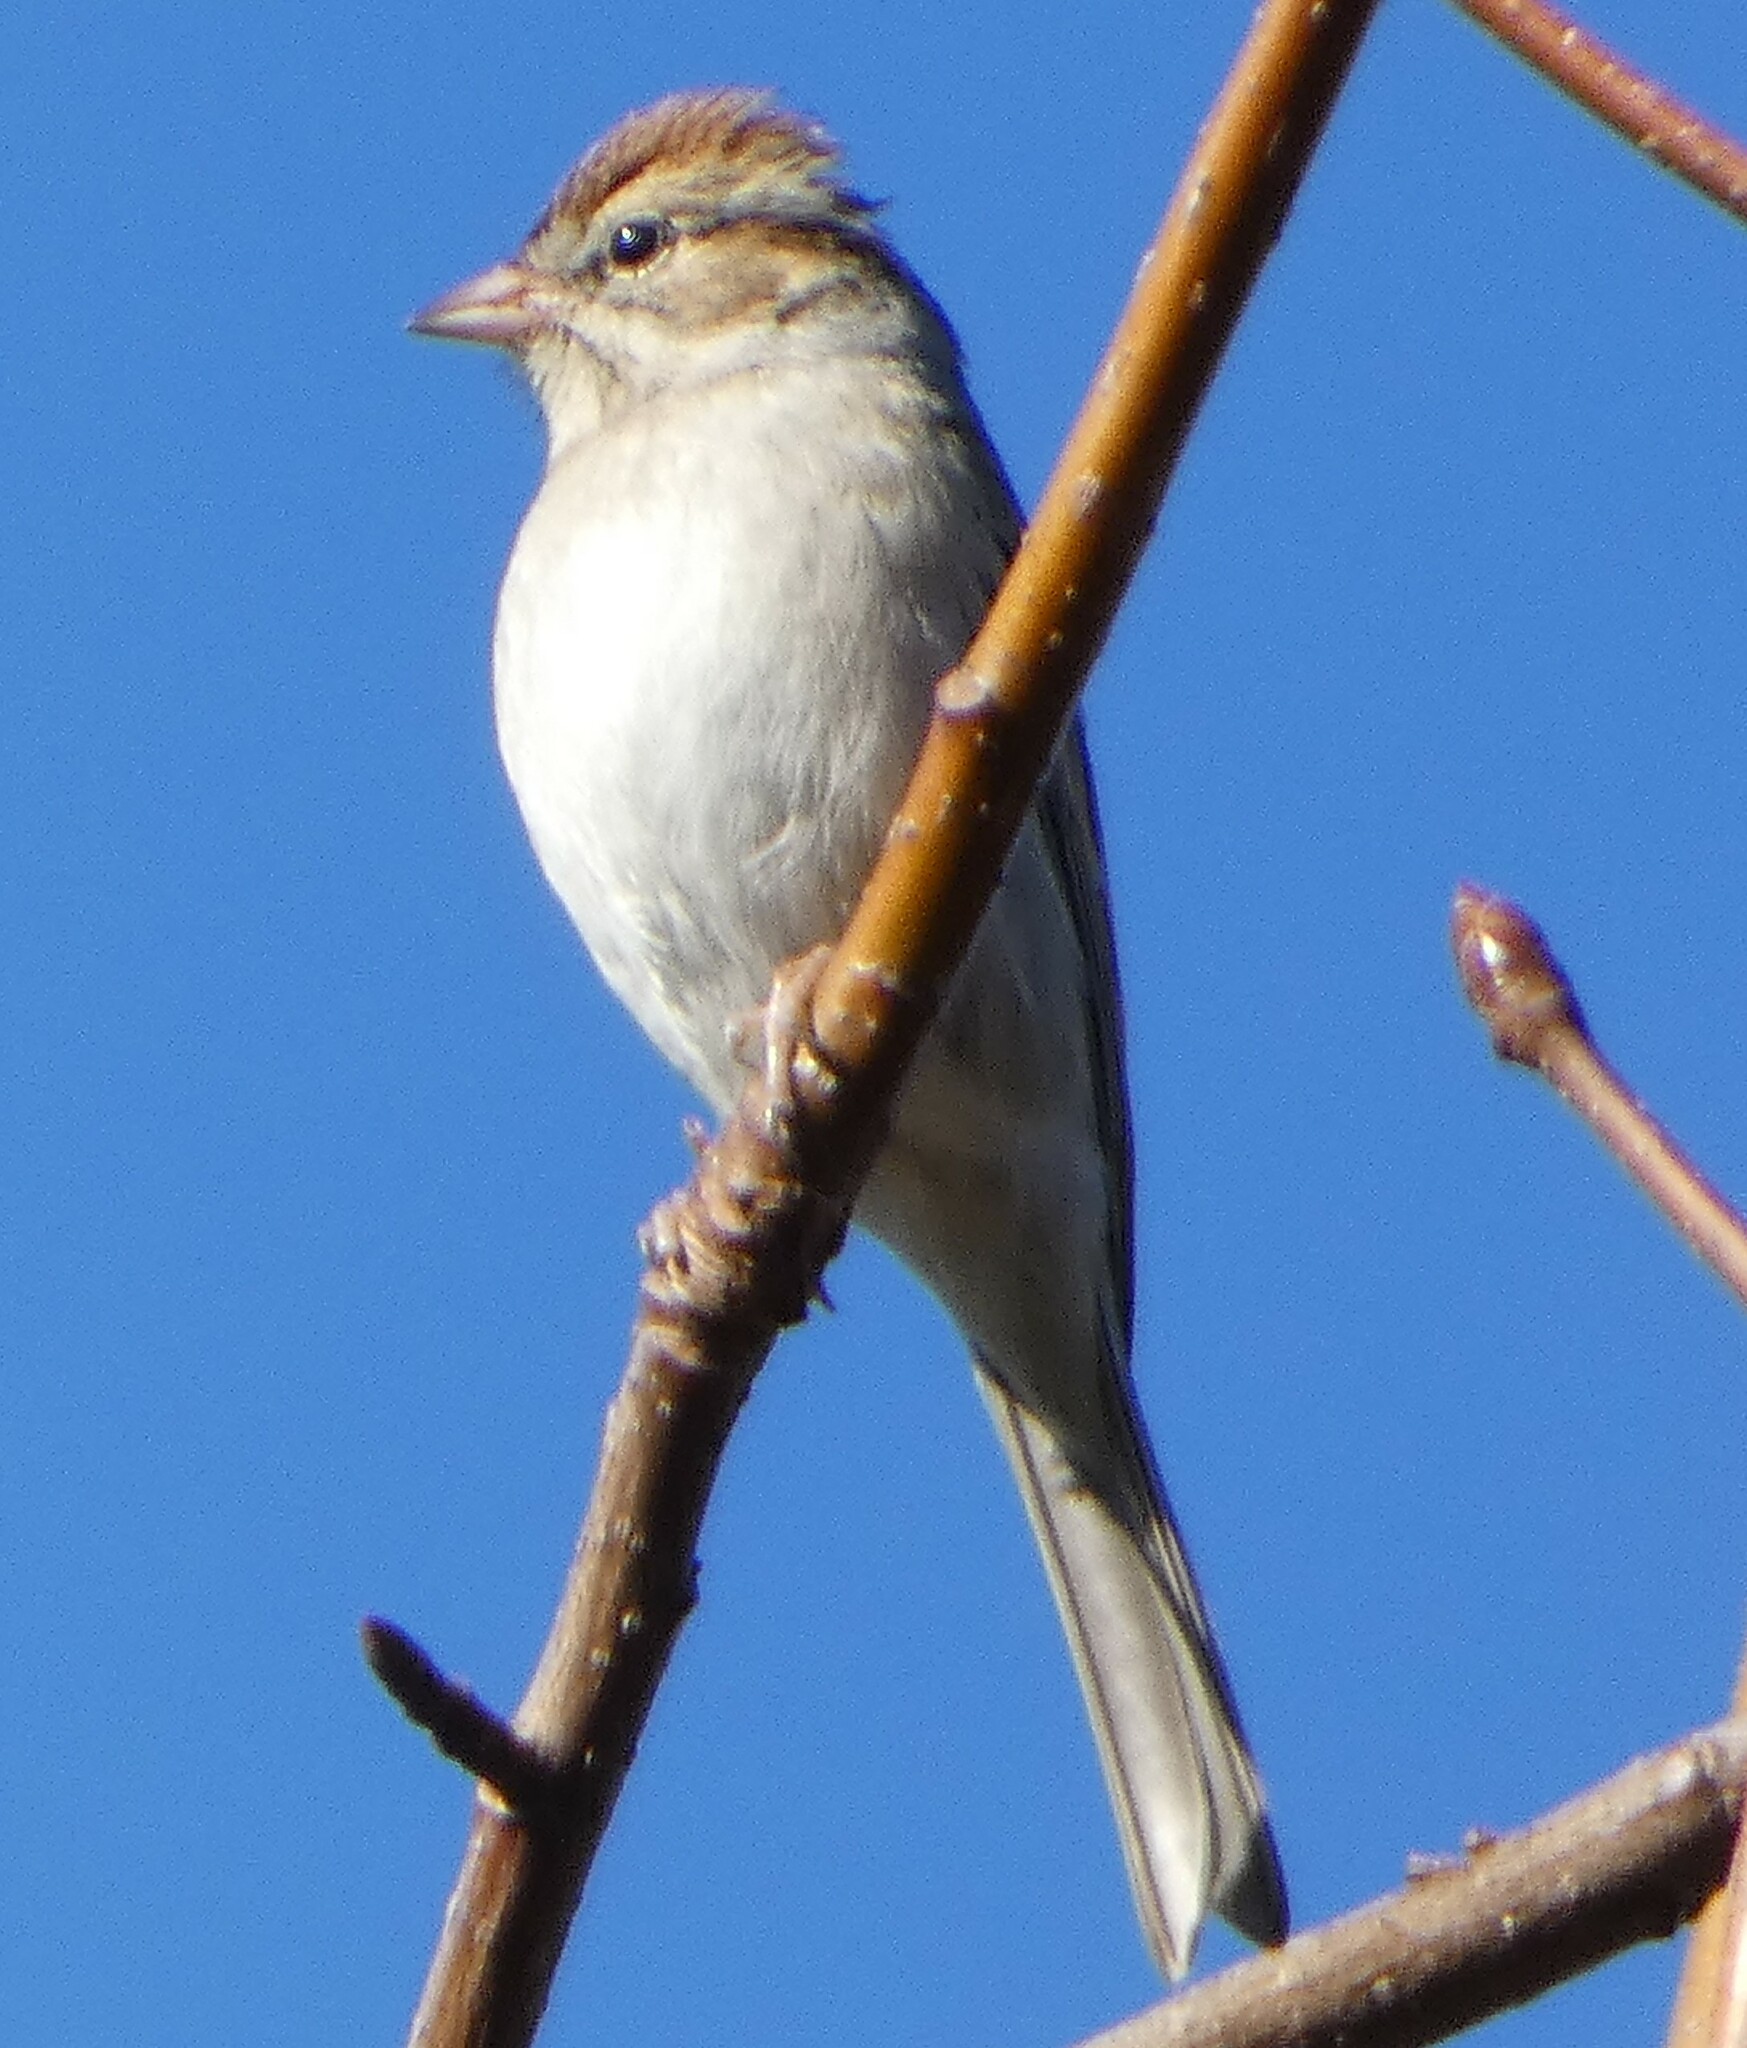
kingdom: Animalia
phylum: Chordata
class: Aves
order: Passeriformes
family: Passerellidae
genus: Spizella
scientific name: Spizella passerina
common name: Chipping sparrow
